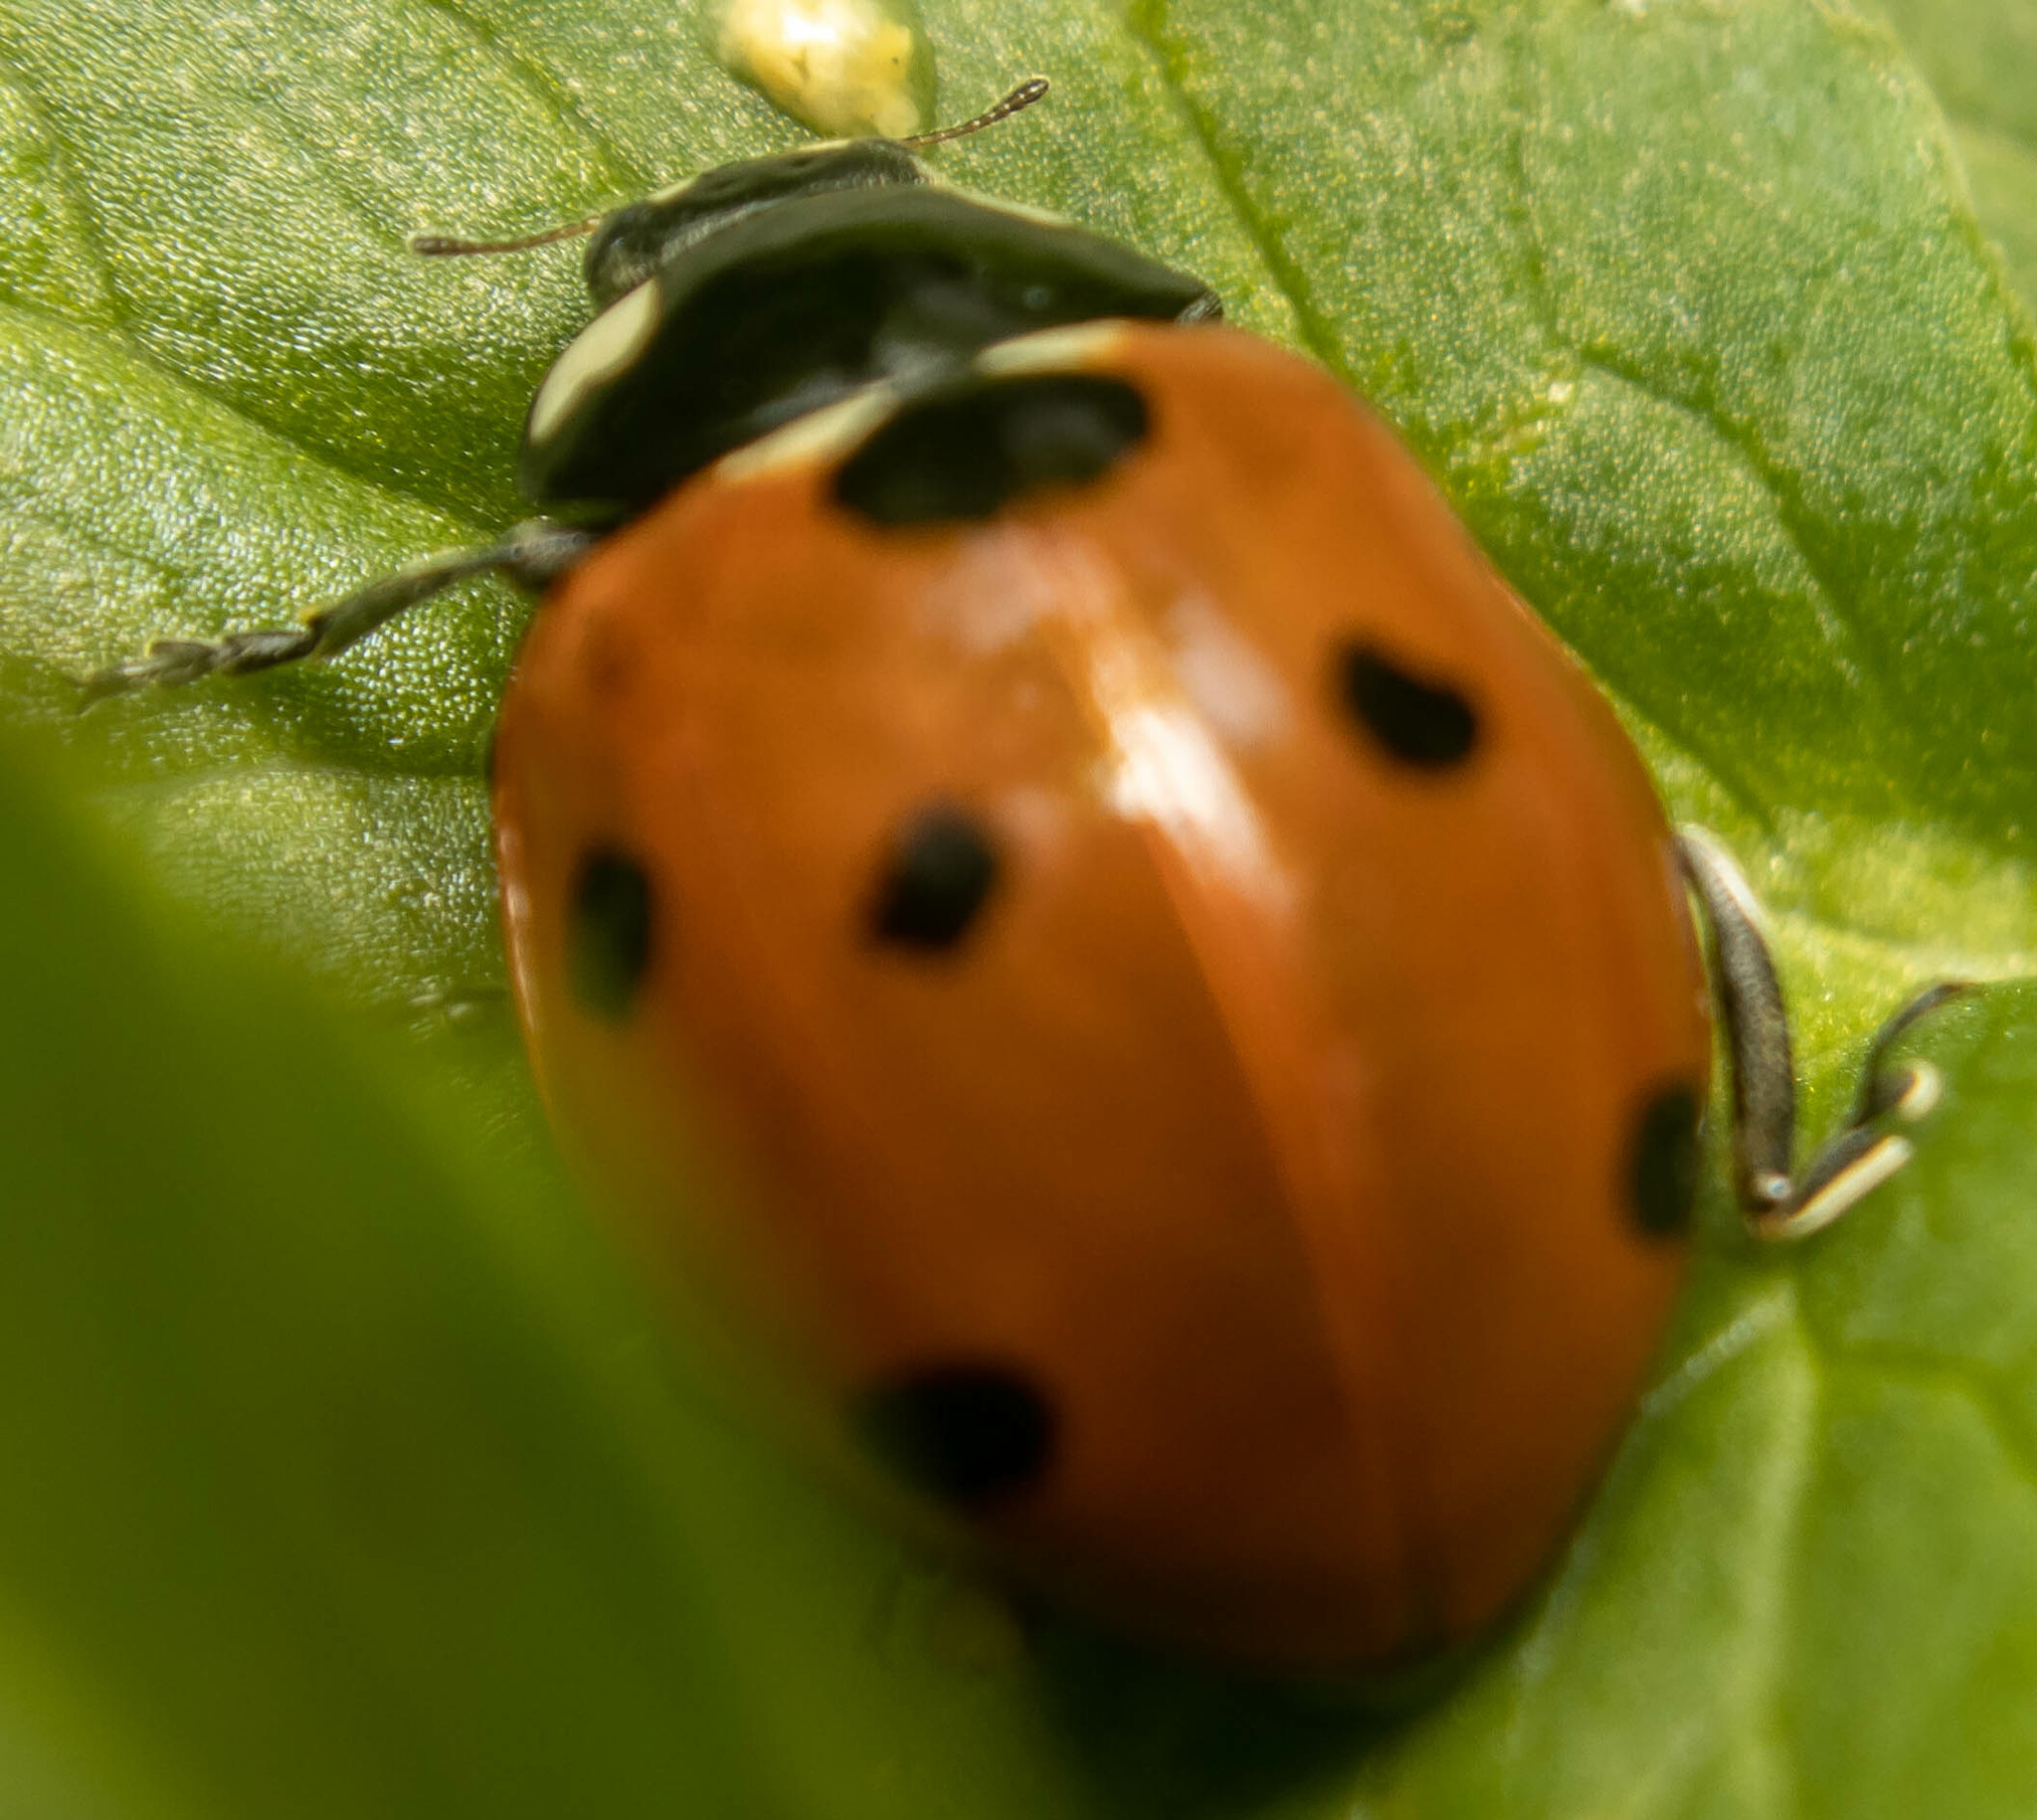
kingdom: Animalia
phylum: Arthropoda
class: Insecta
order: Coleoptera
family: Coccinellidae
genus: Coccinella
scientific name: Coccinella septempunctata
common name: Sevenspotted lady beetle
